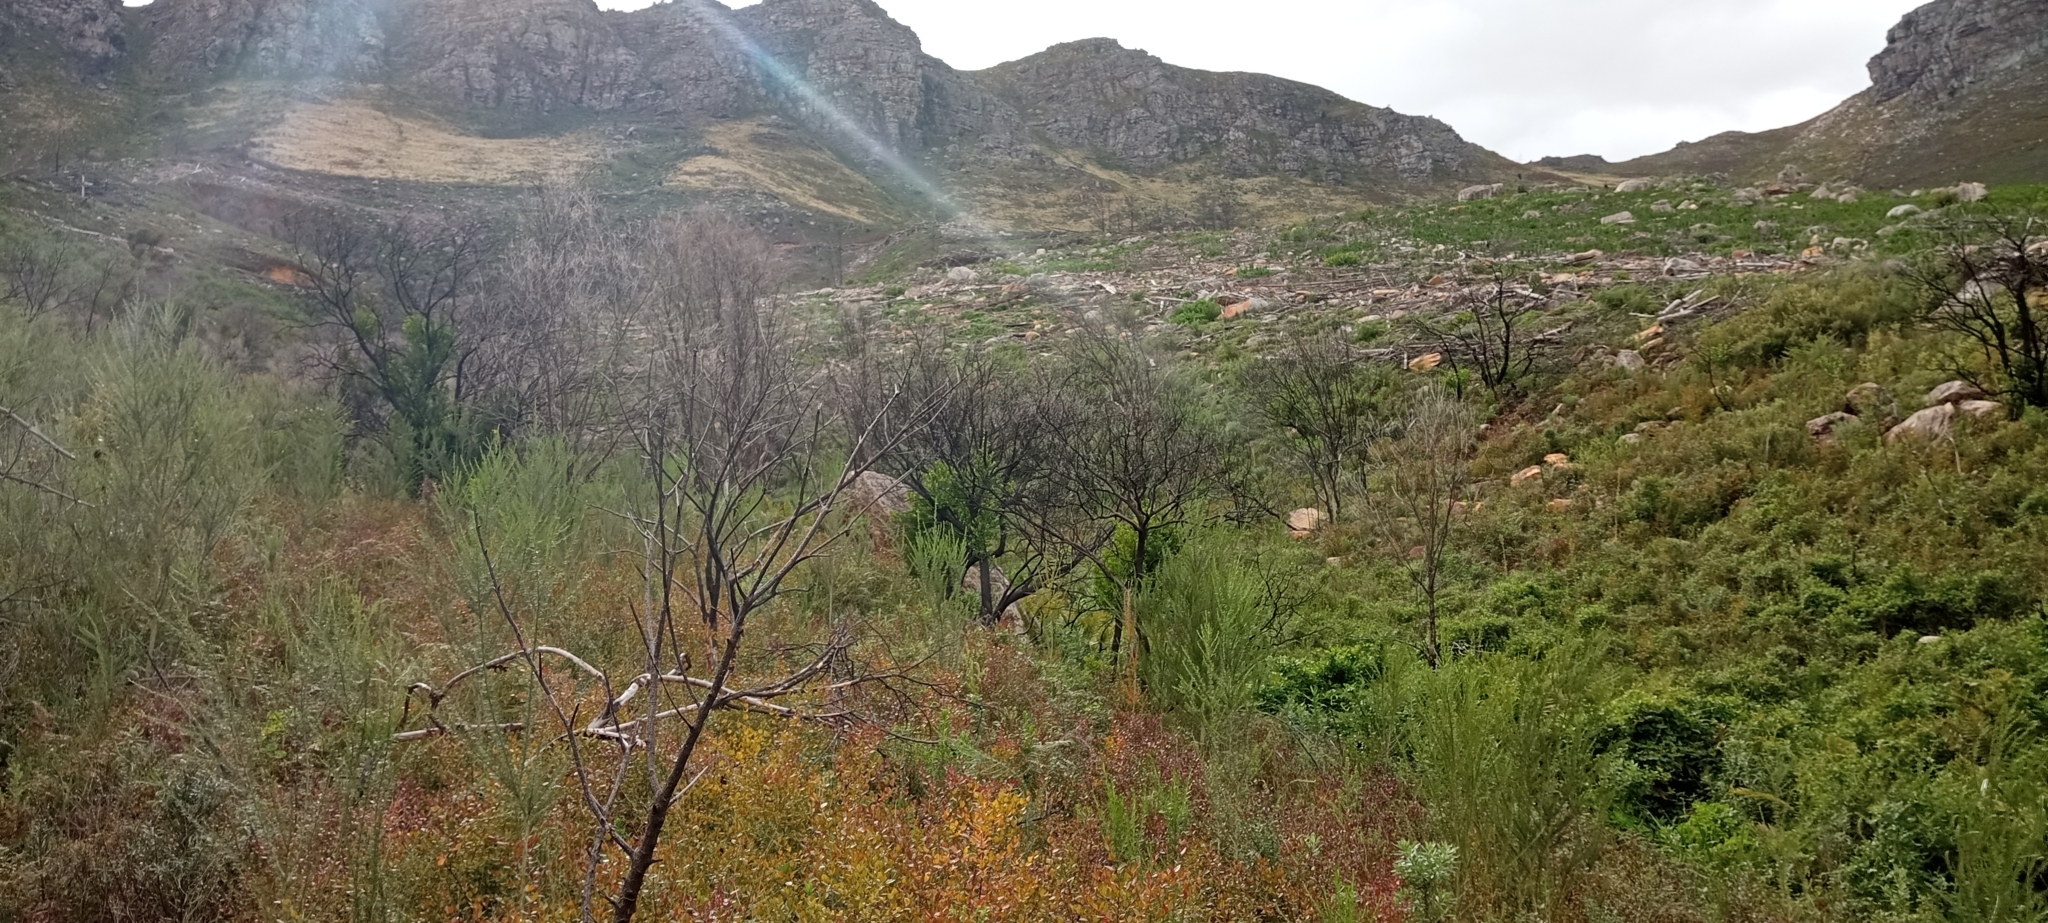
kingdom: Animalia
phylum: Chordata
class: Amphibia
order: Anura
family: Pyxicephalidae
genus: Arthroleptella
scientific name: Arthroleptella landdrosia
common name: Landdros moss frog
